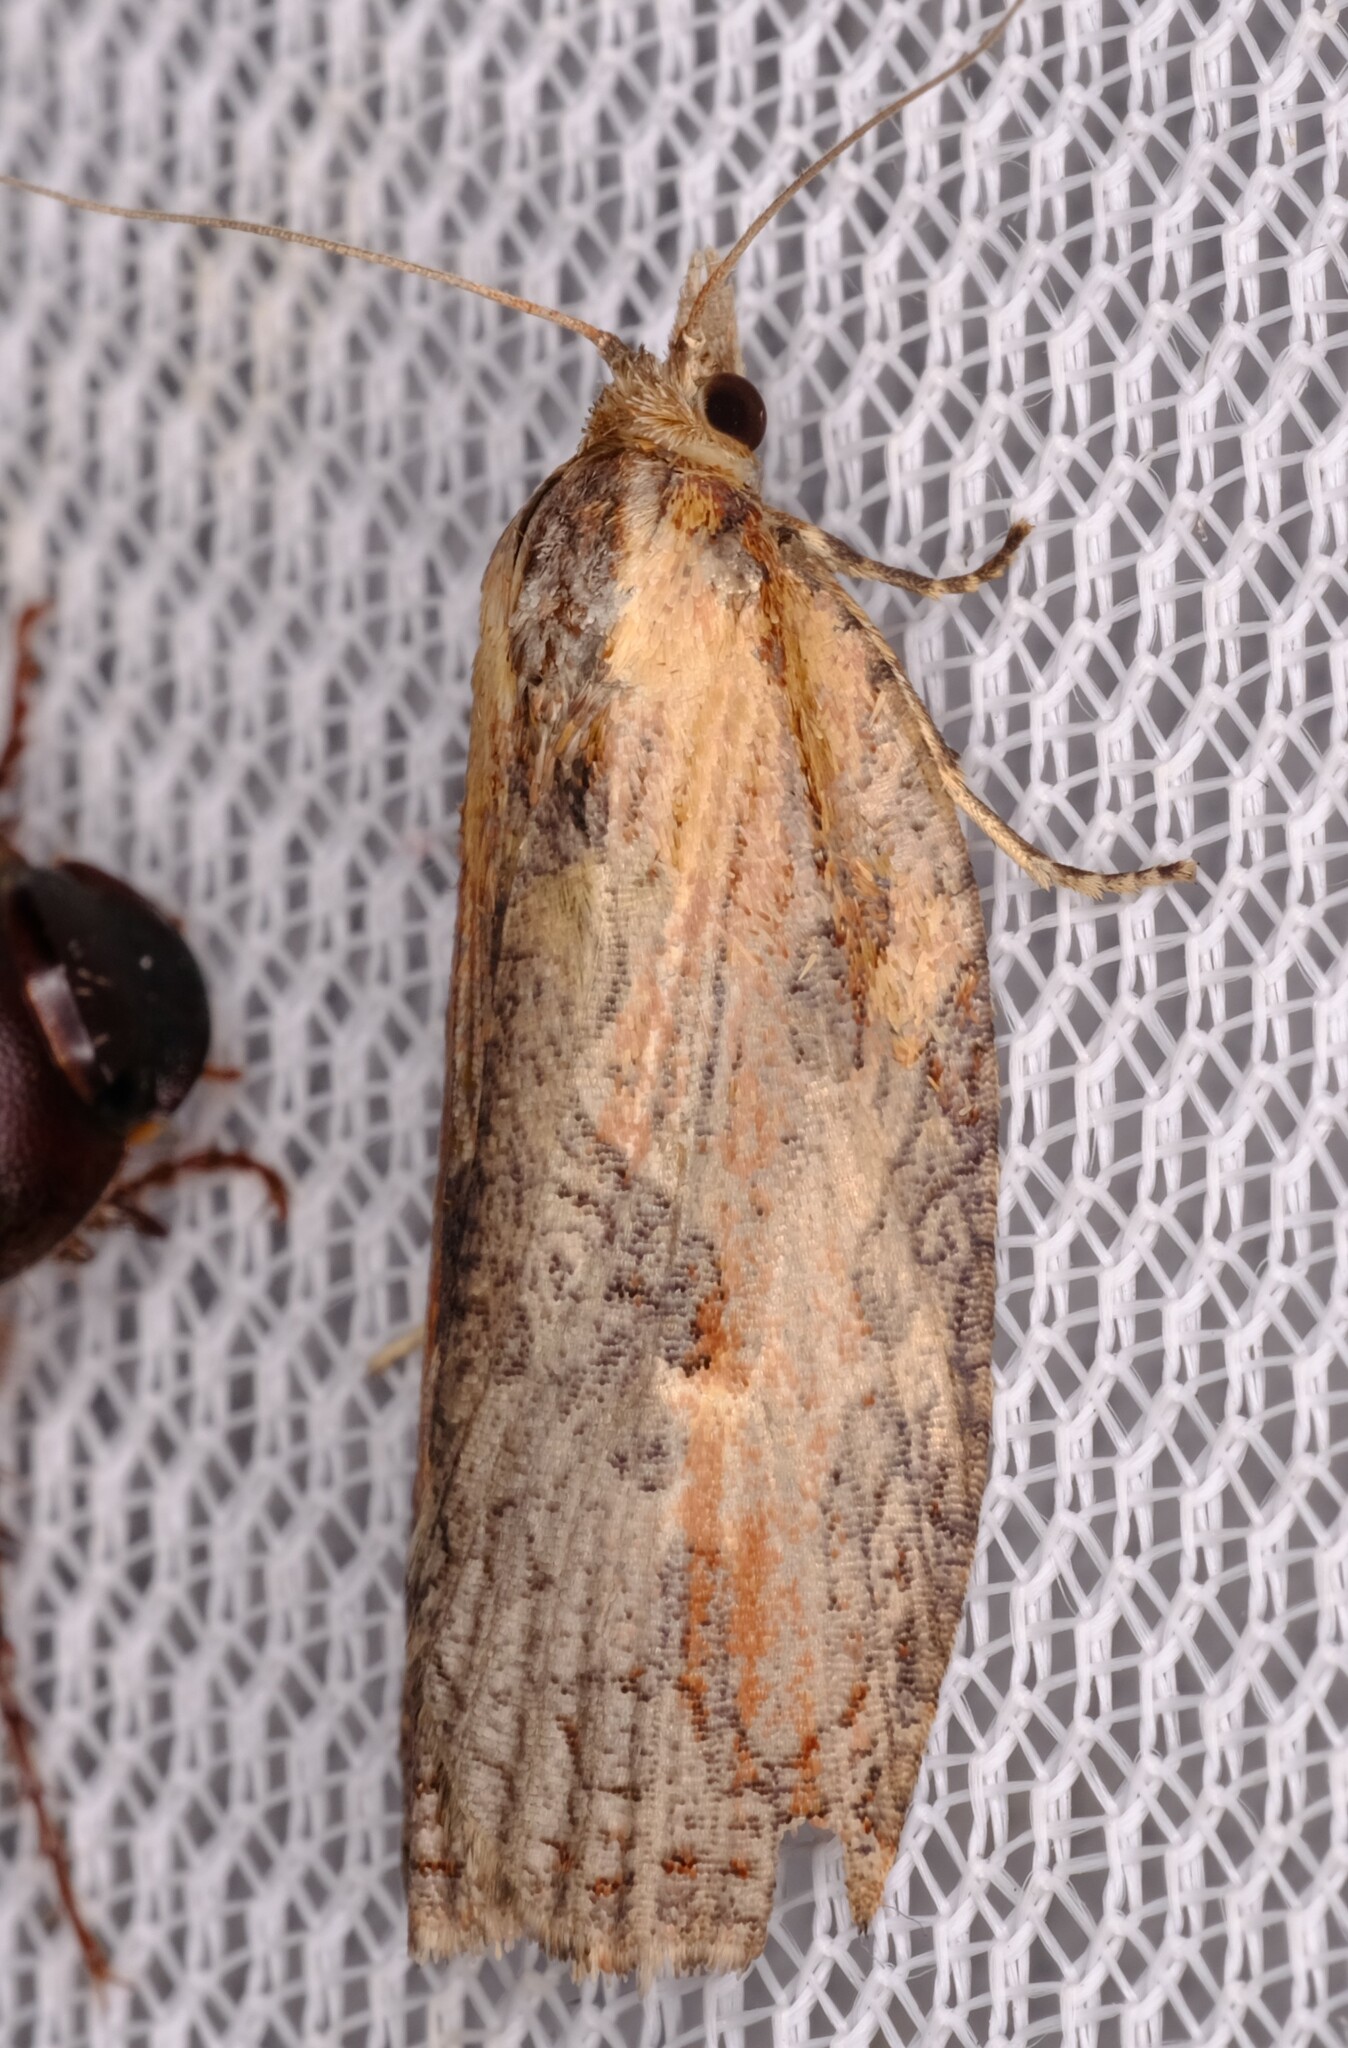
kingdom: Animalia
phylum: Arthropoda
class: Insecta
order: Lepidoptera
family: Tortricidae
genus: Cryptoptila
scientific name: Cryptoptila immersana
